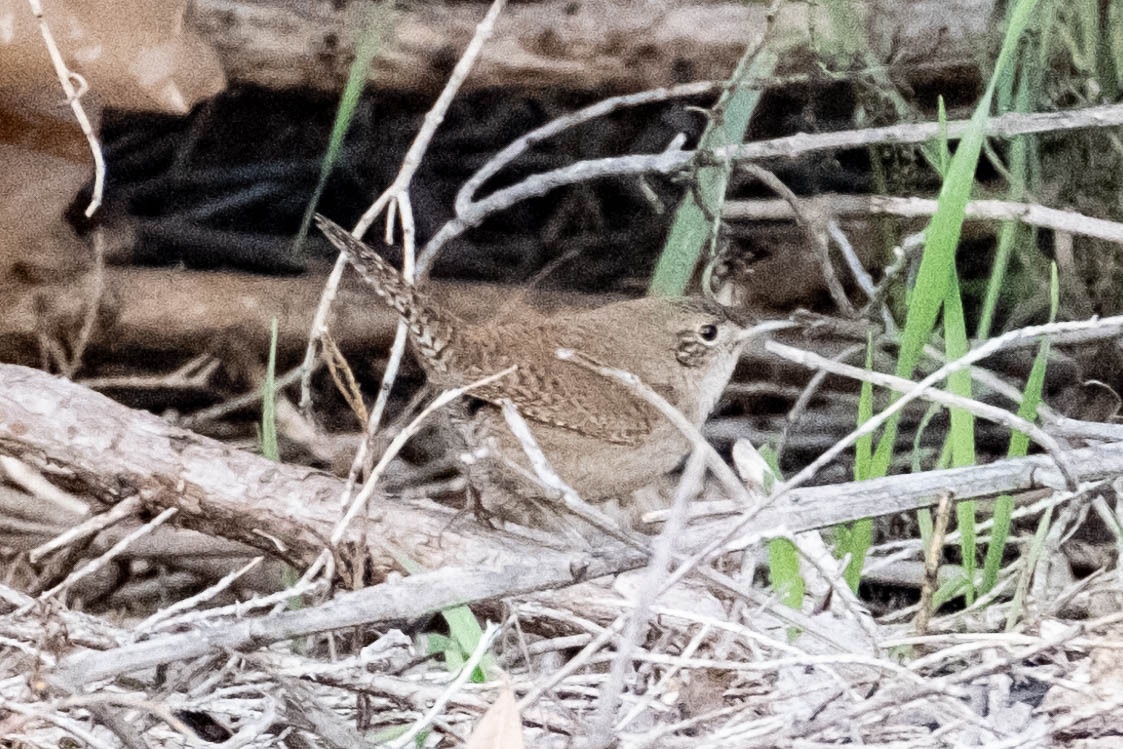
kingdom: Animalia
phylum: Chordata
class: Aves
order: Passeriformes
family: Troglodytidae
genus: Troglodytes
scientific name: Troglodytes aedon
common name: House wren
